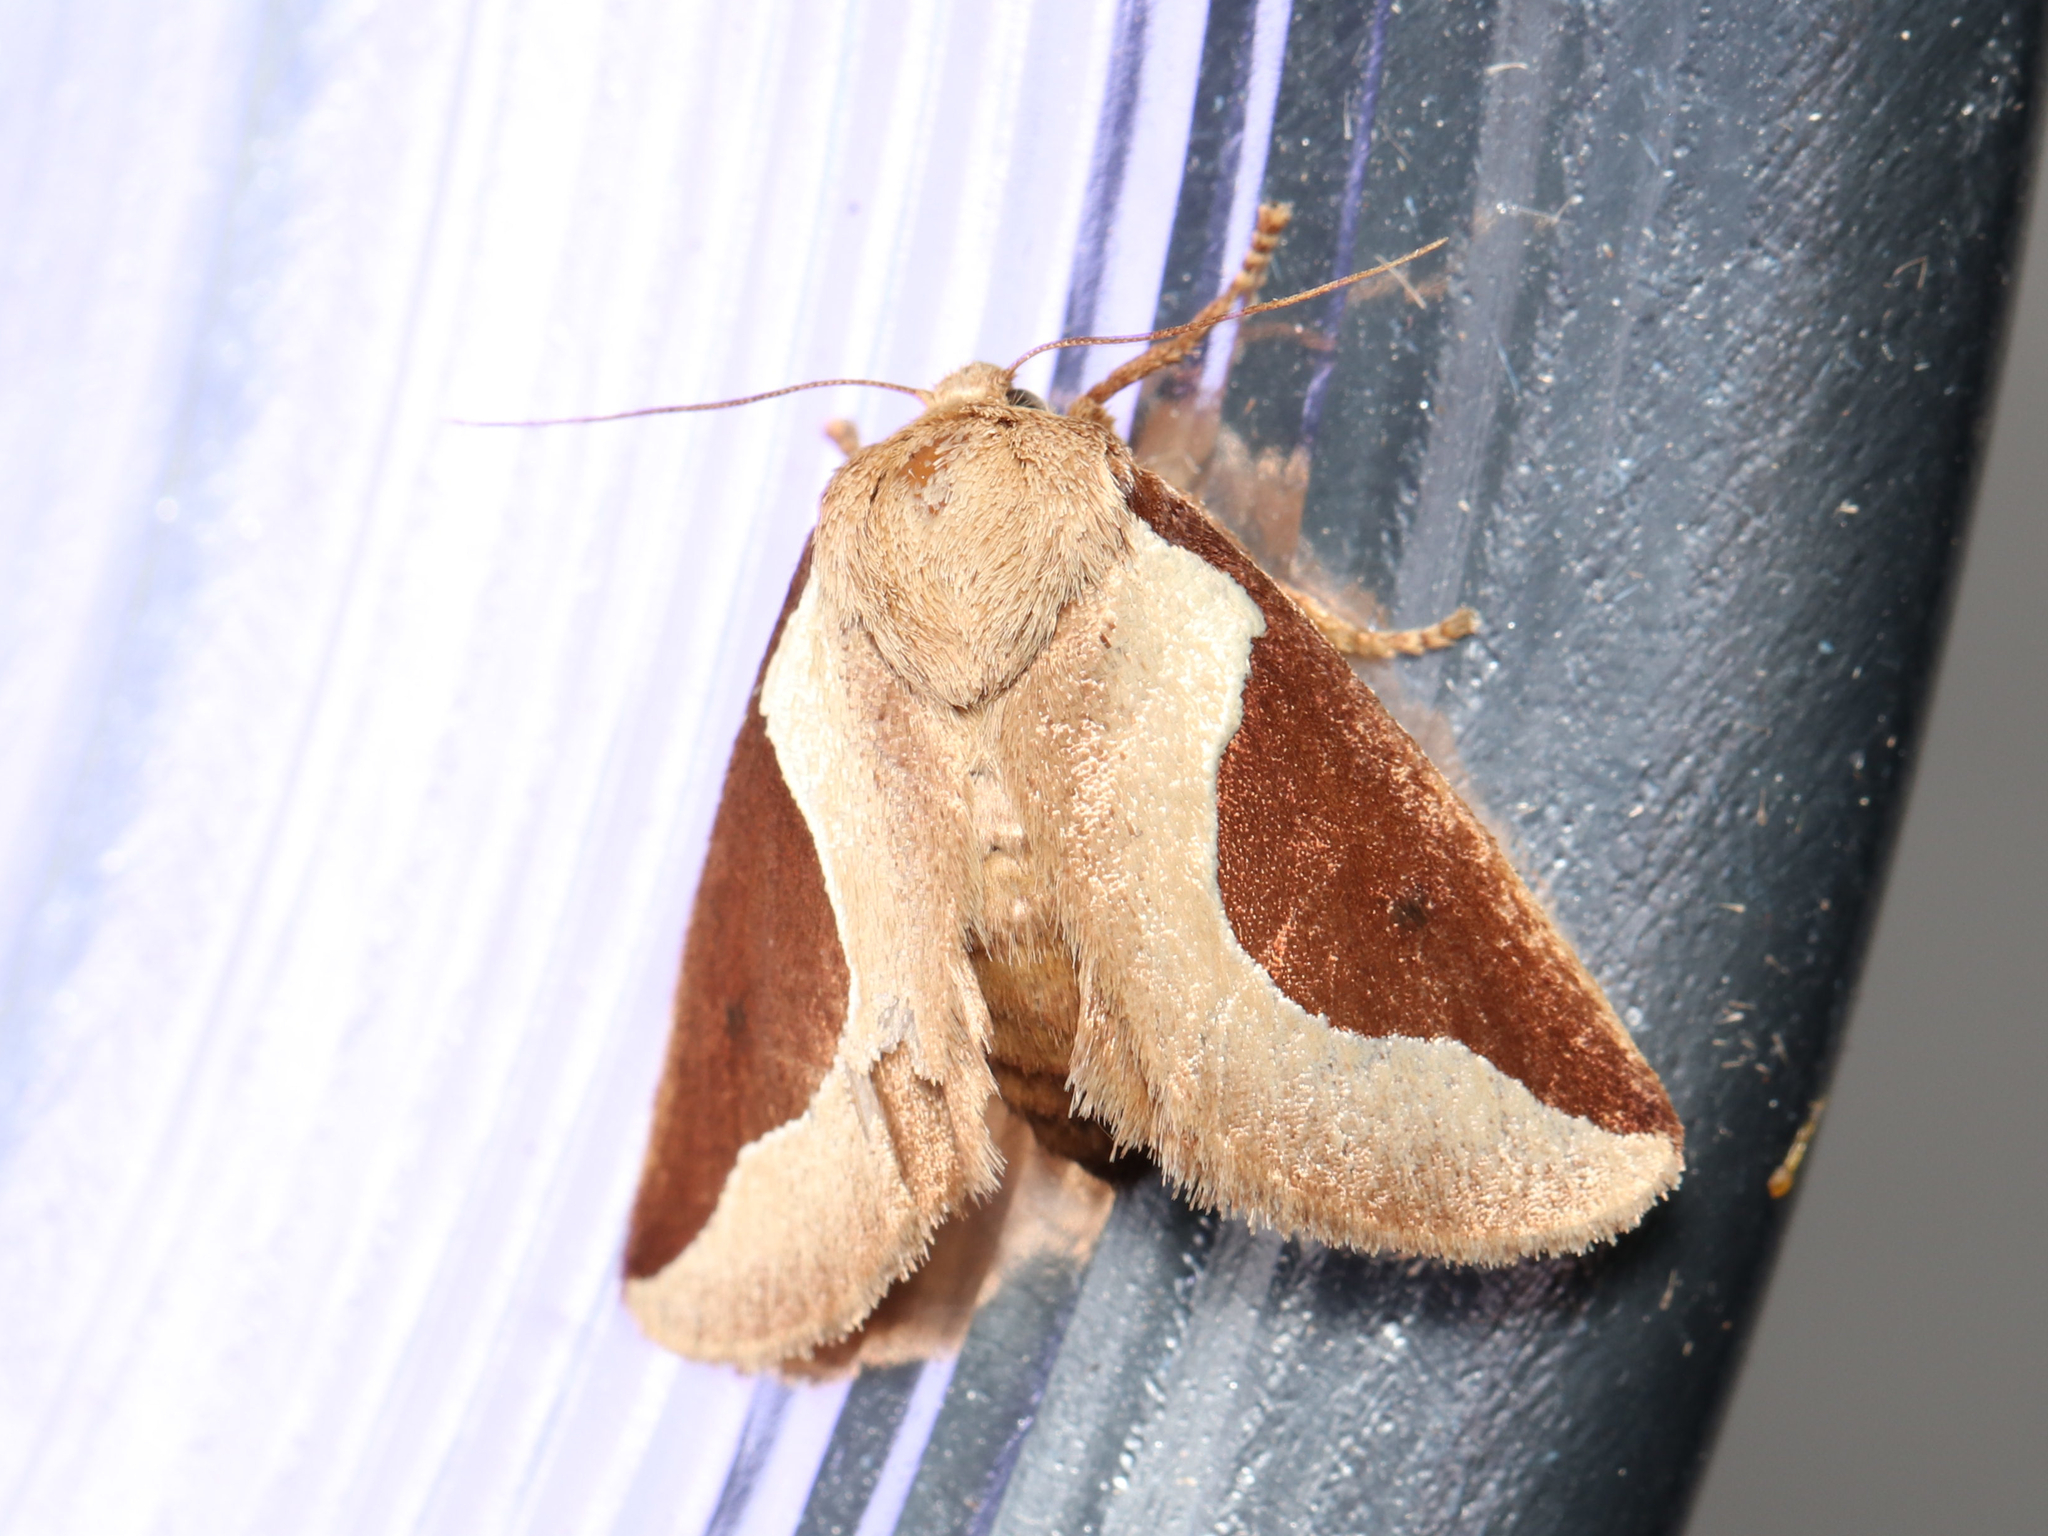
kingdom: Animalia
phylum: Arthropoda
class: Insecta
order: Lepidoptera
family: Limacodidae
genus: Prolimacodes
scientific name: Prolimacodes badia
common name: Skiff moth
